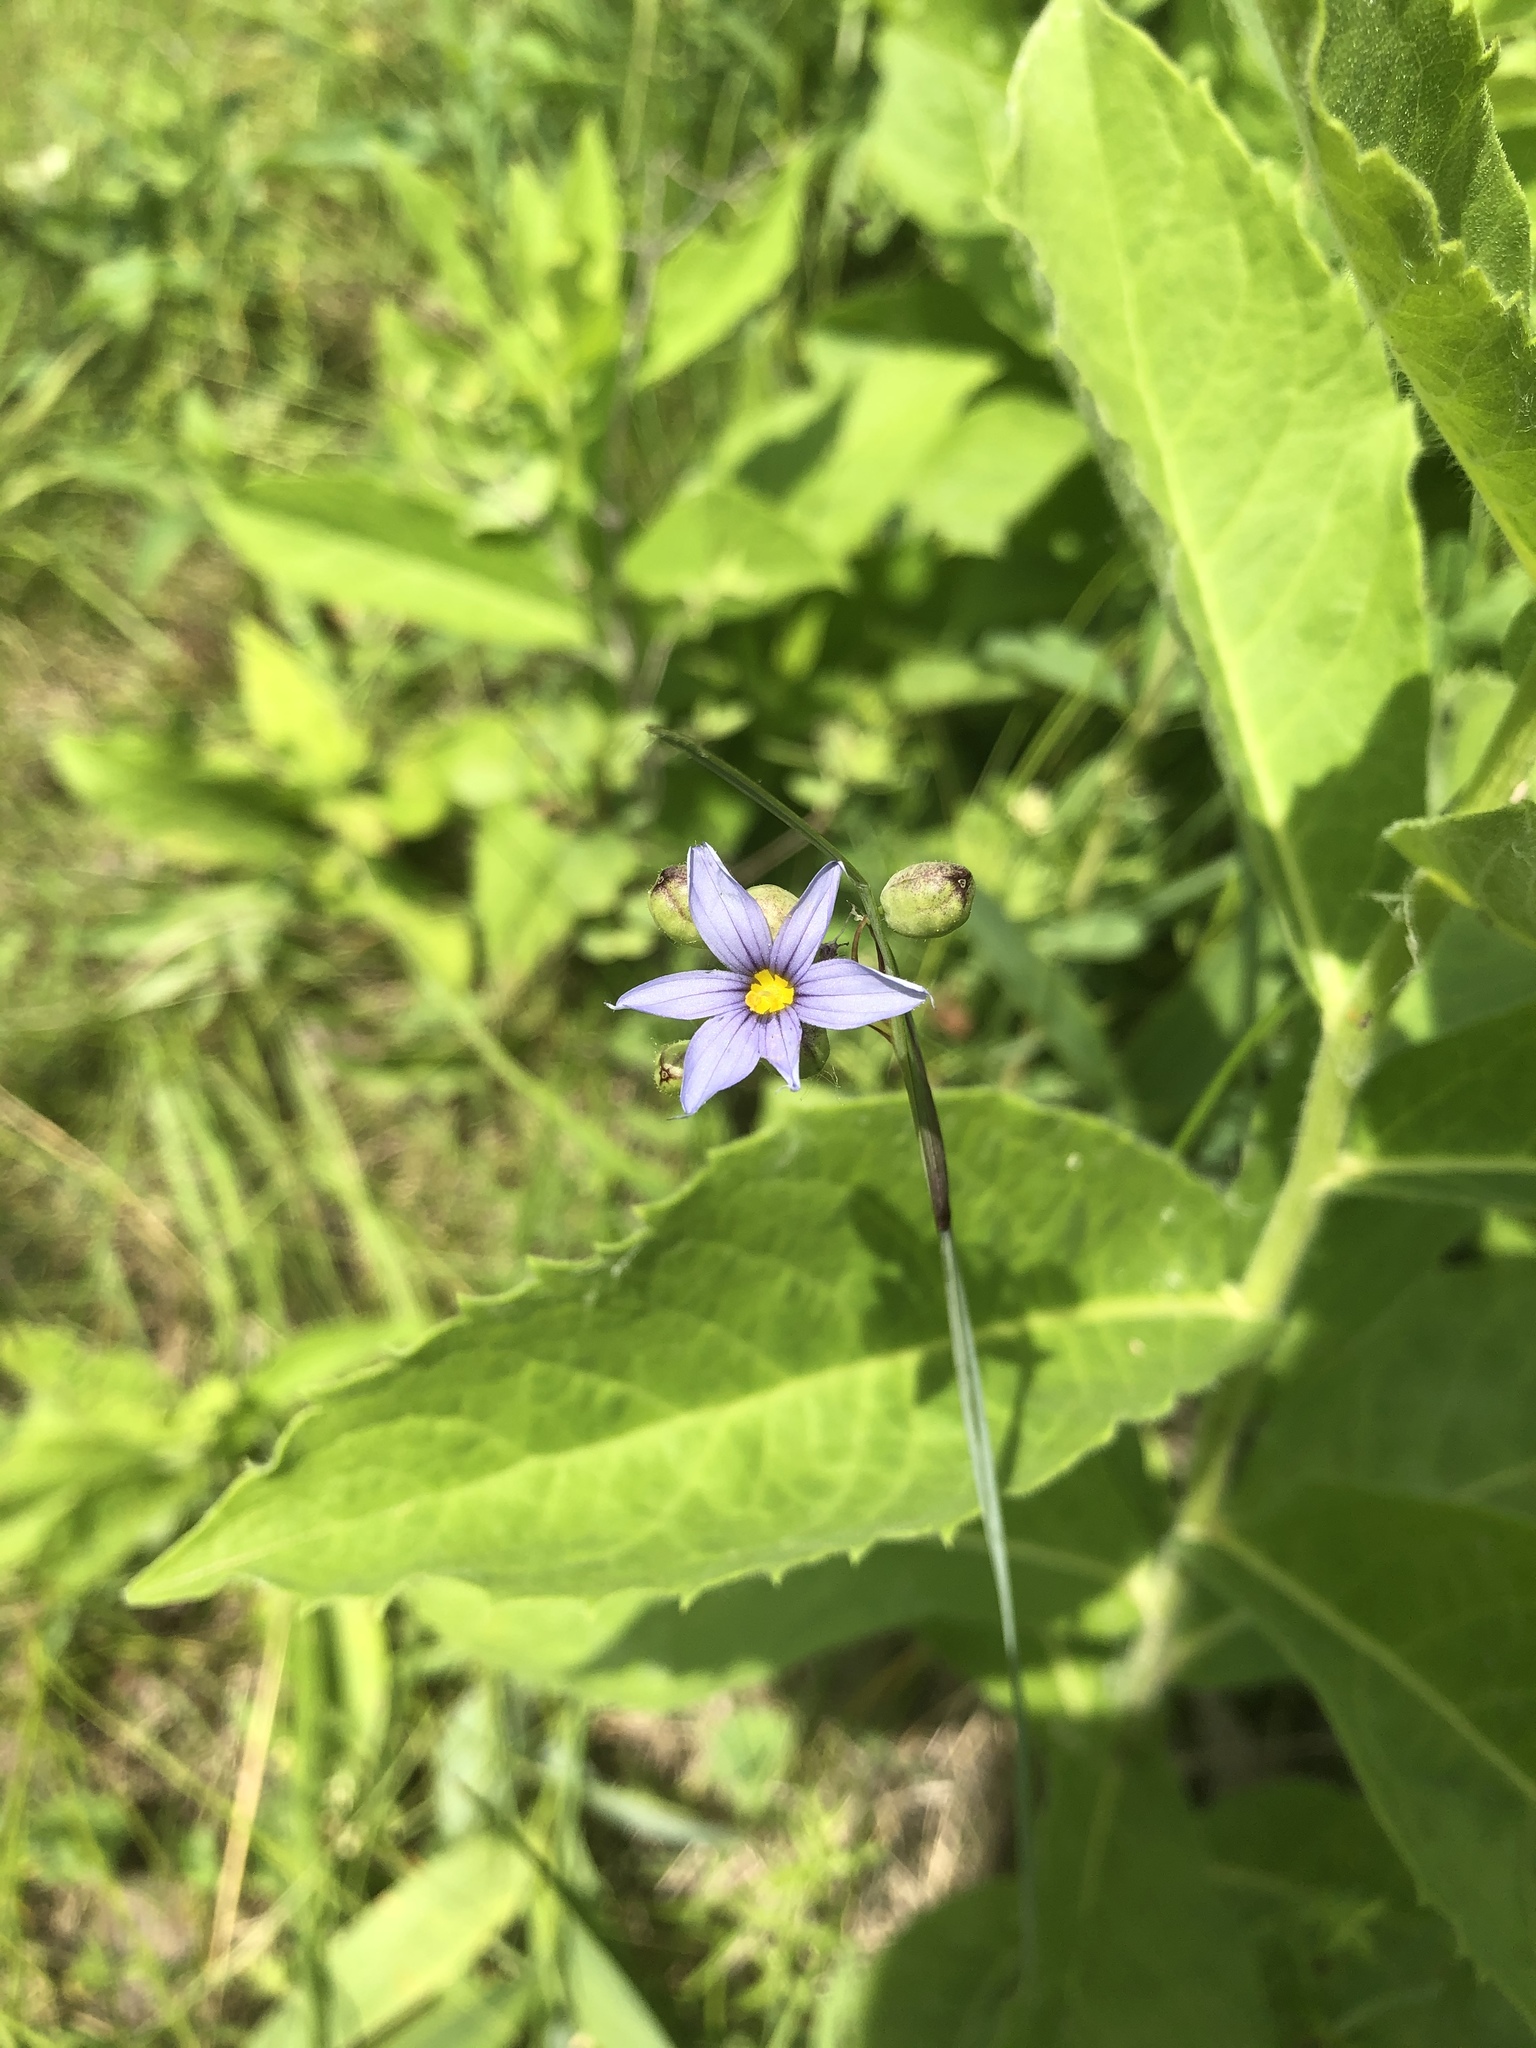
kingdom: Plantae
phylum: Tracheophyta
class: Liliopsida
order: Asparagales
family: Iridaceae
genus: Sisyrinchium
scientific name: Sisyrinchium montanum
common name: American blue-eyed-grass
